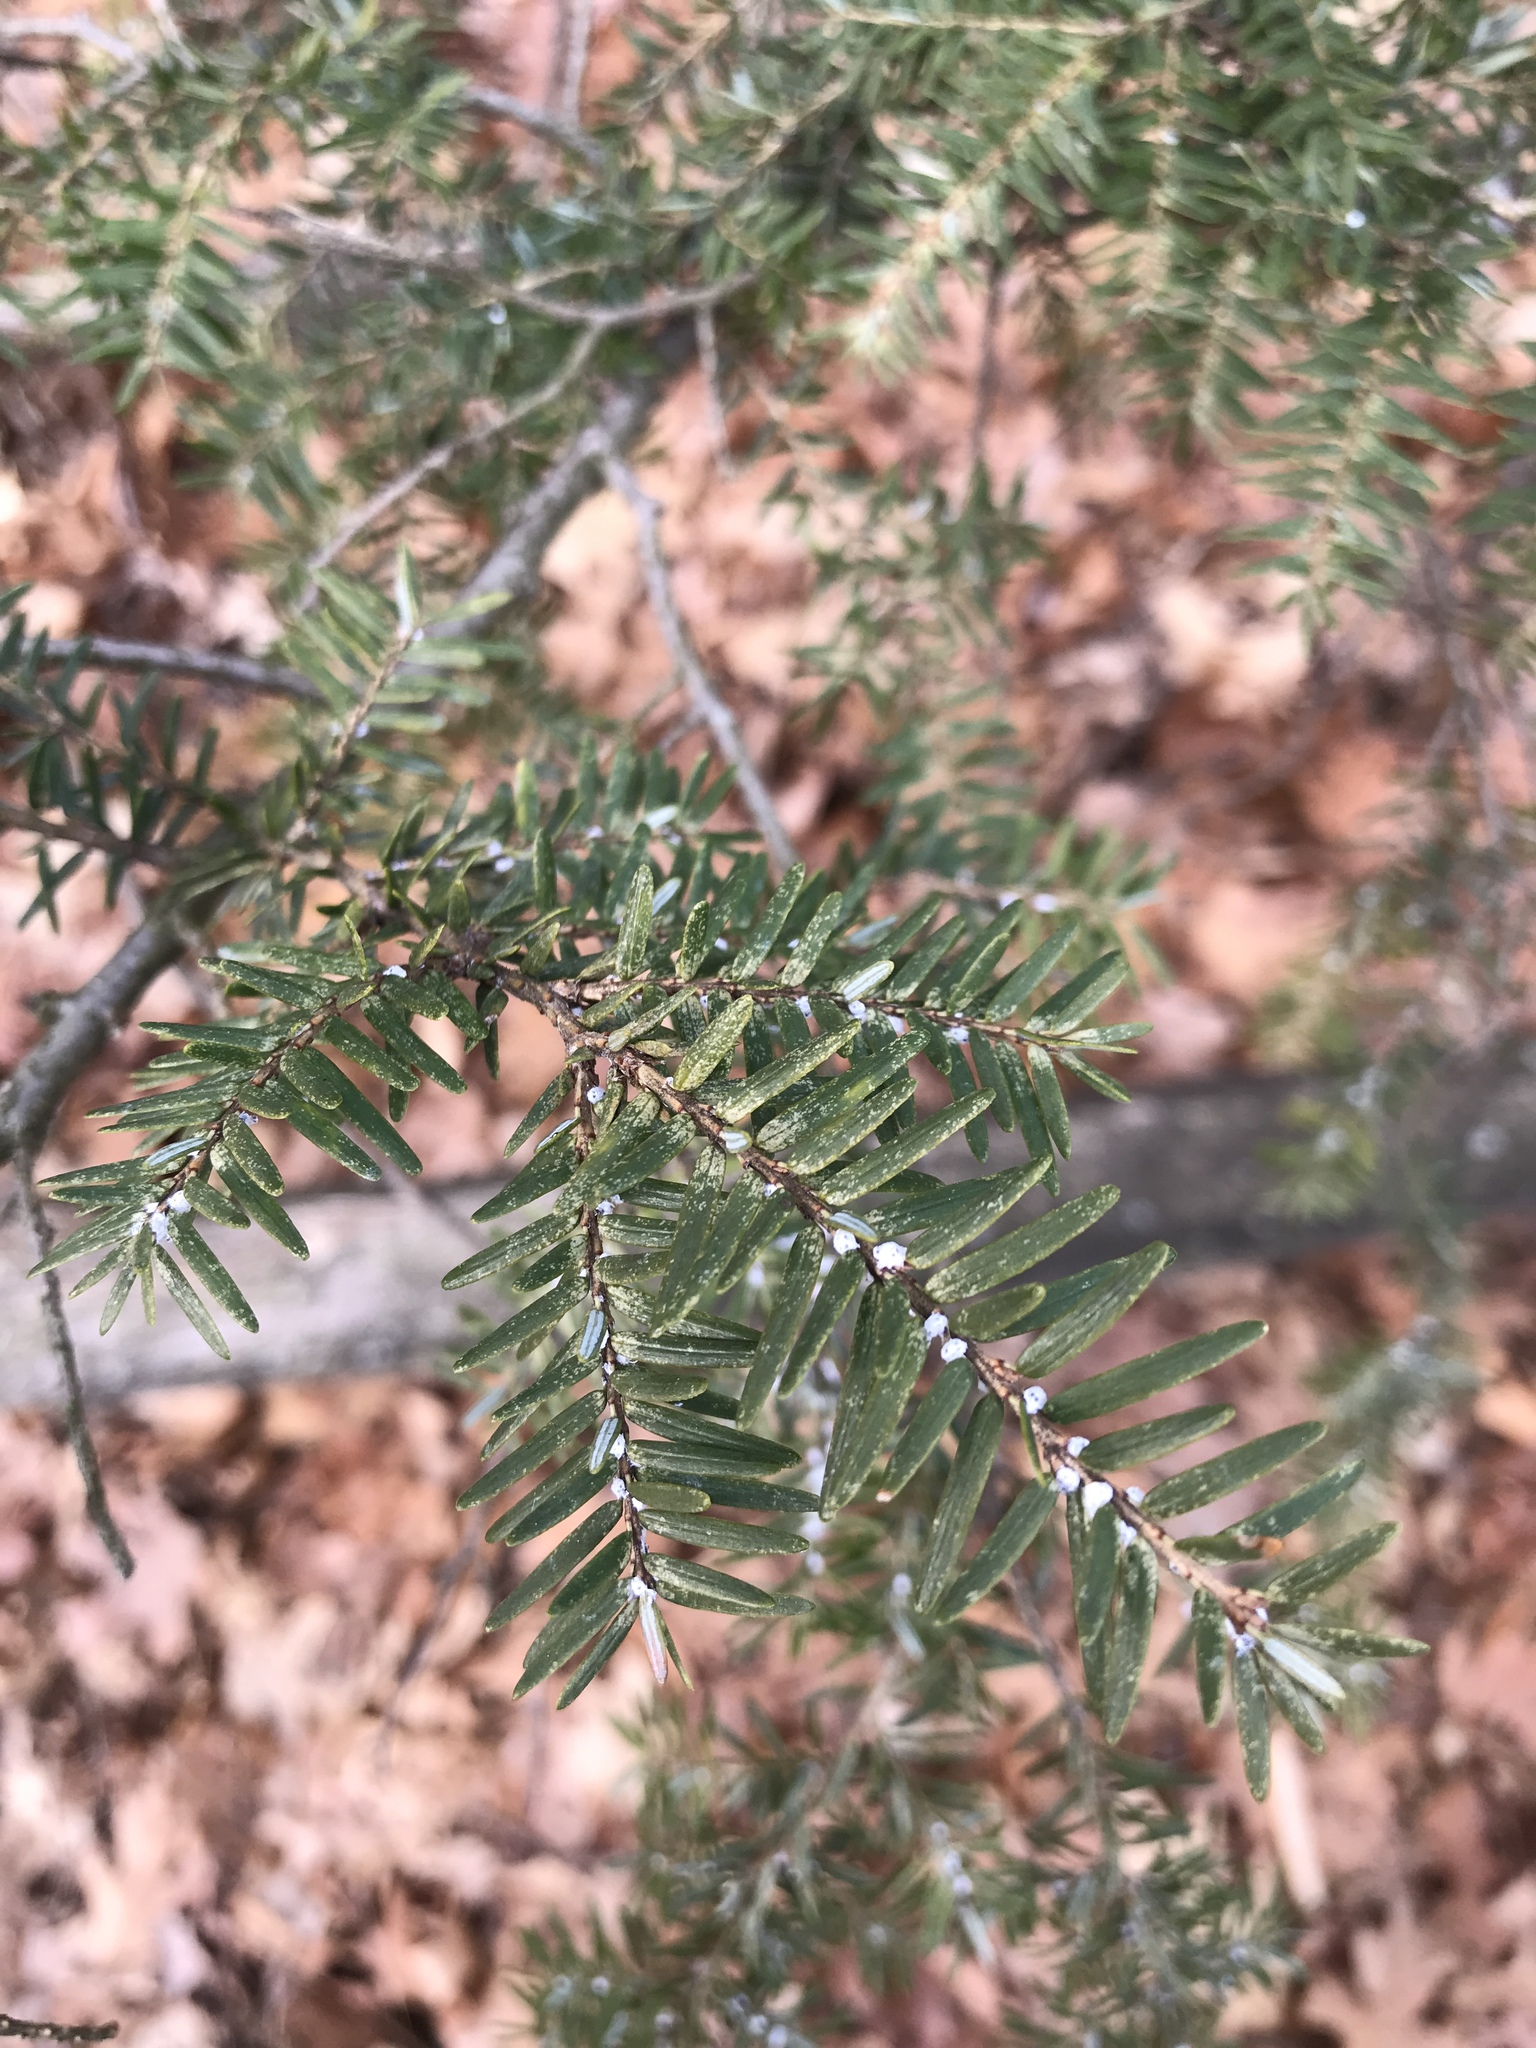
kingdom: Plantae
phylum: Tracheophyta
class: Pinopsida
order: Pinales
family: Pinaceae
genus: Tsuga
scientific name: Tsuga canadensis
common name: Eastern hemlock
